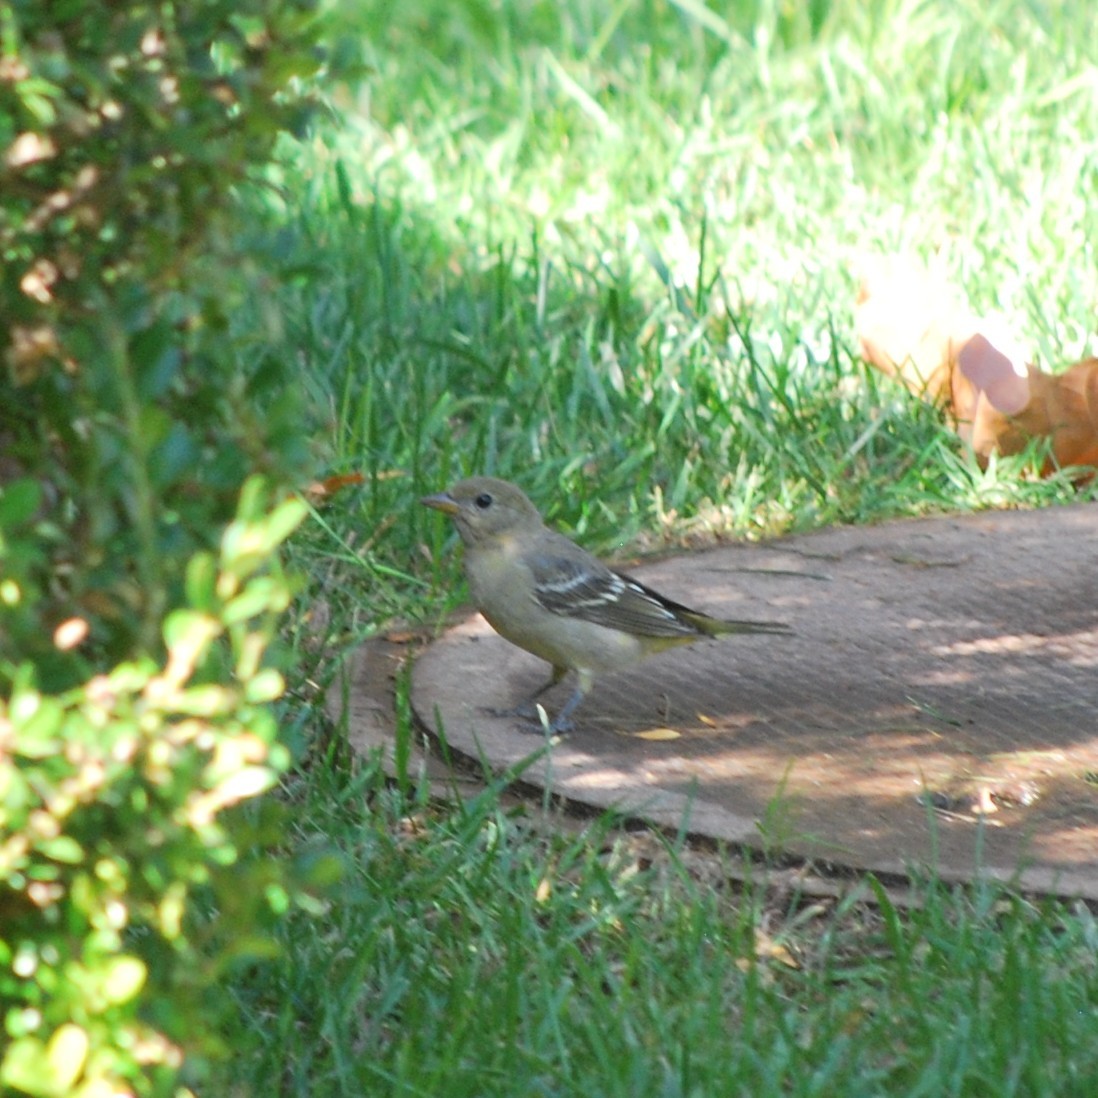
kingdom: Animalia
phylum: Chordata
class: Aves
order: Passeriformes
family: Cardinalidae
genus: Piranga
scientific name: Piranga ludoviciana
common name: Western tanager
